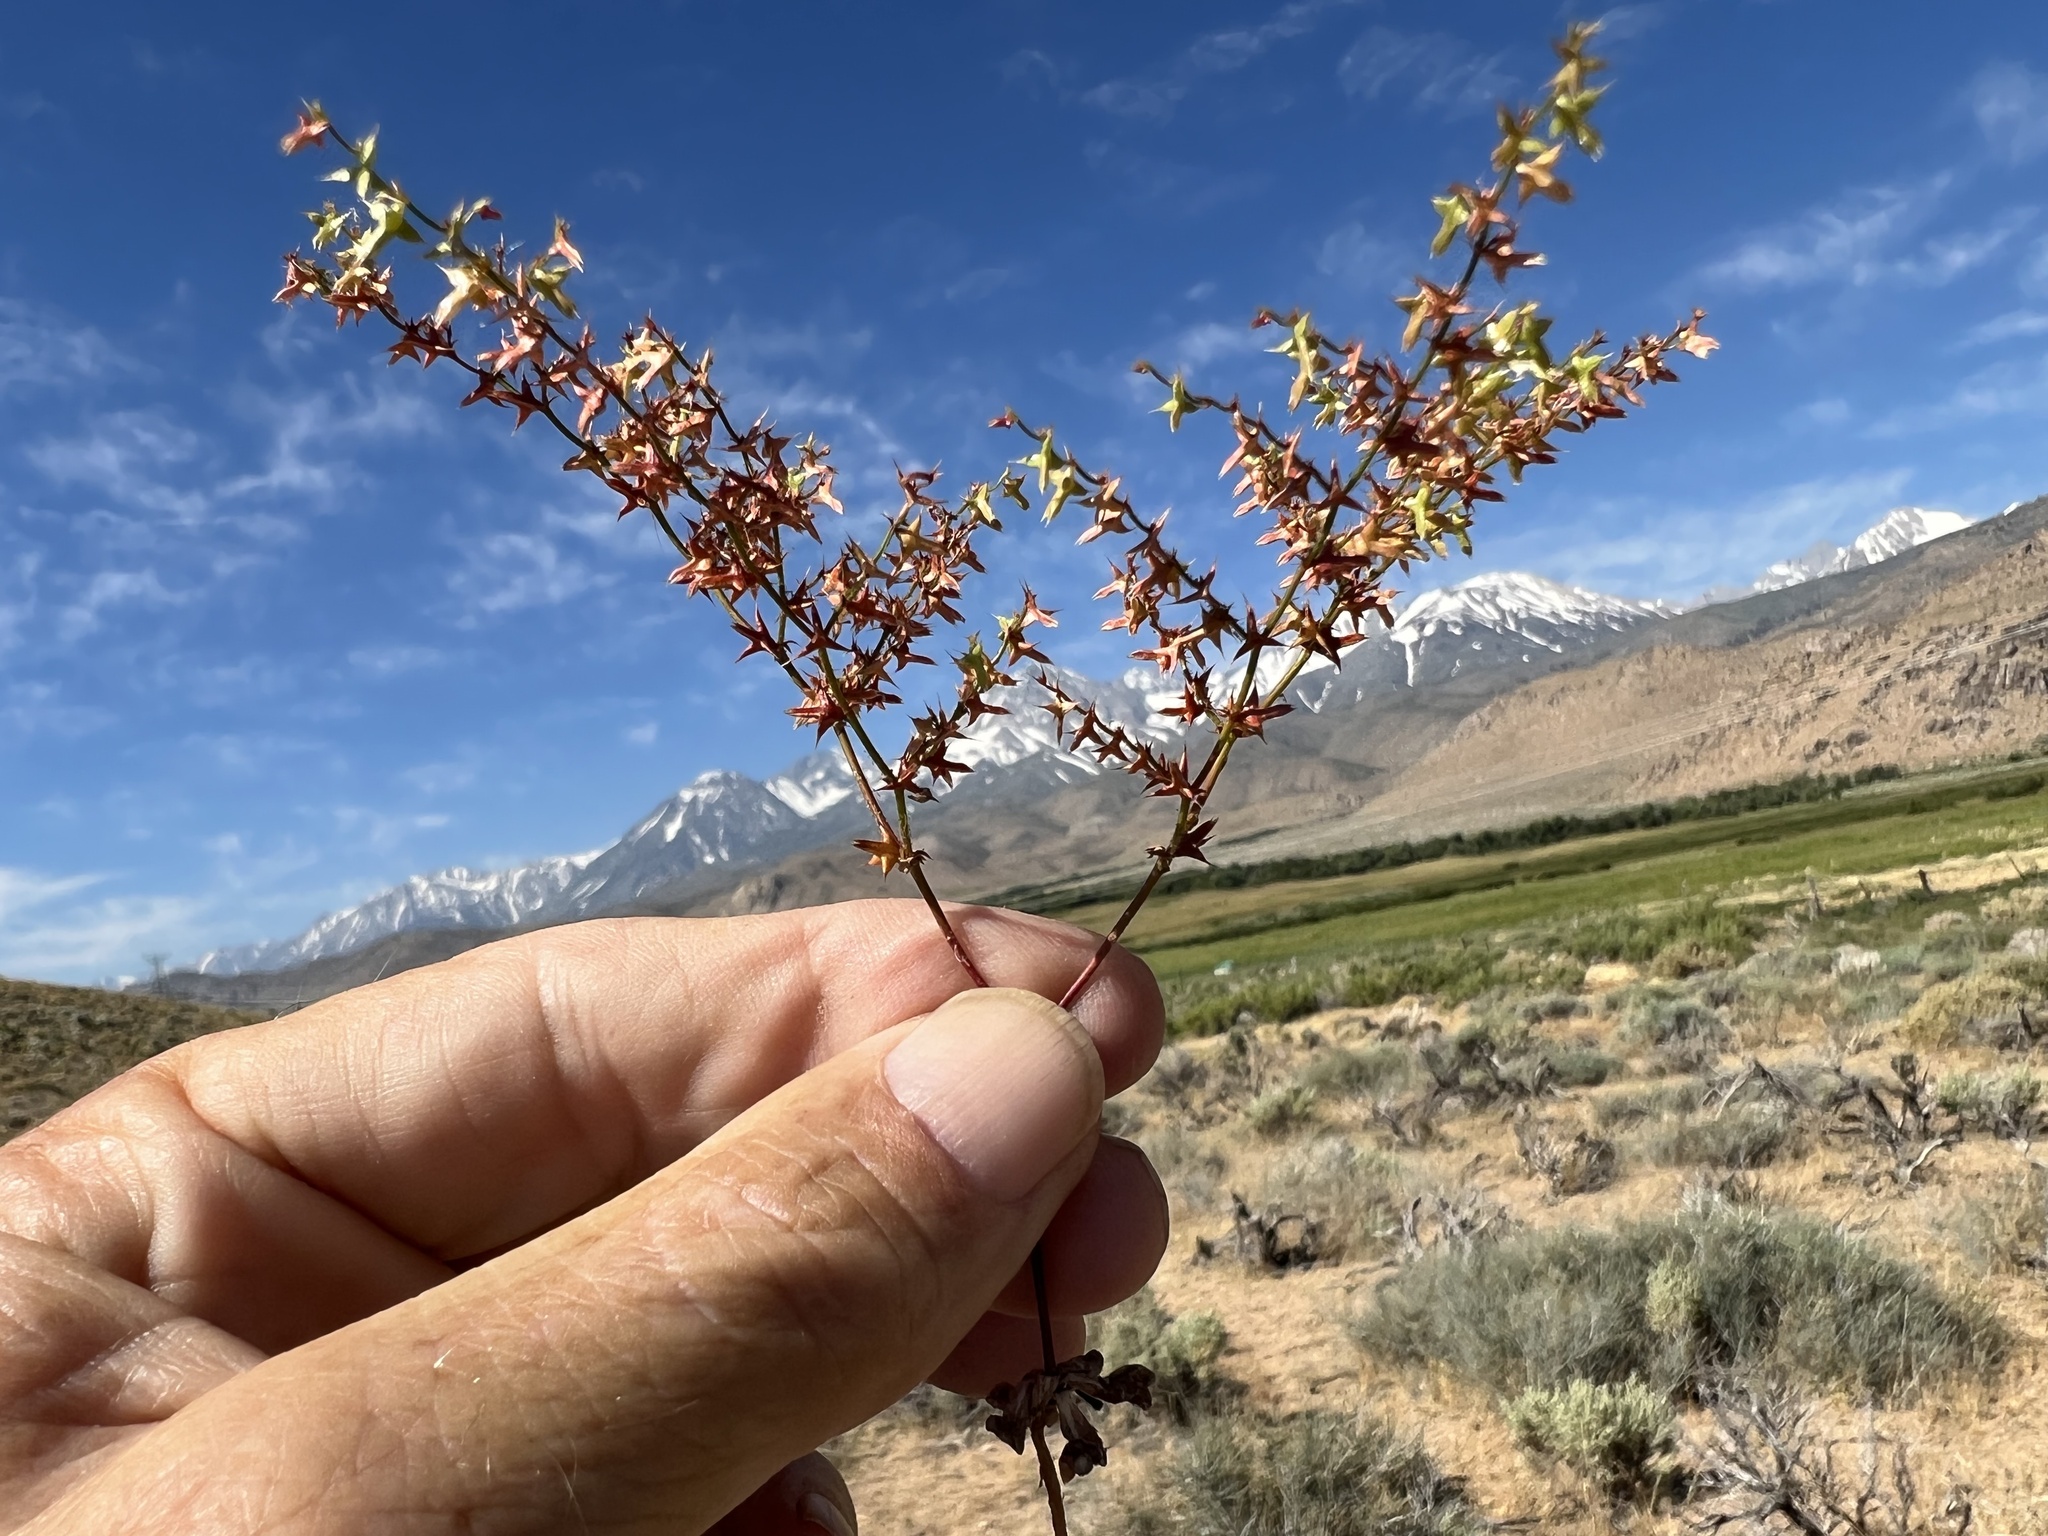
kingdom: Plantae
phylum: Tracheophyta
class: Magnoliopsida
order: Caryophyllales
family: Polygonaceae
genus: Centrostegia
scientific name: Centrostegia thurberi
